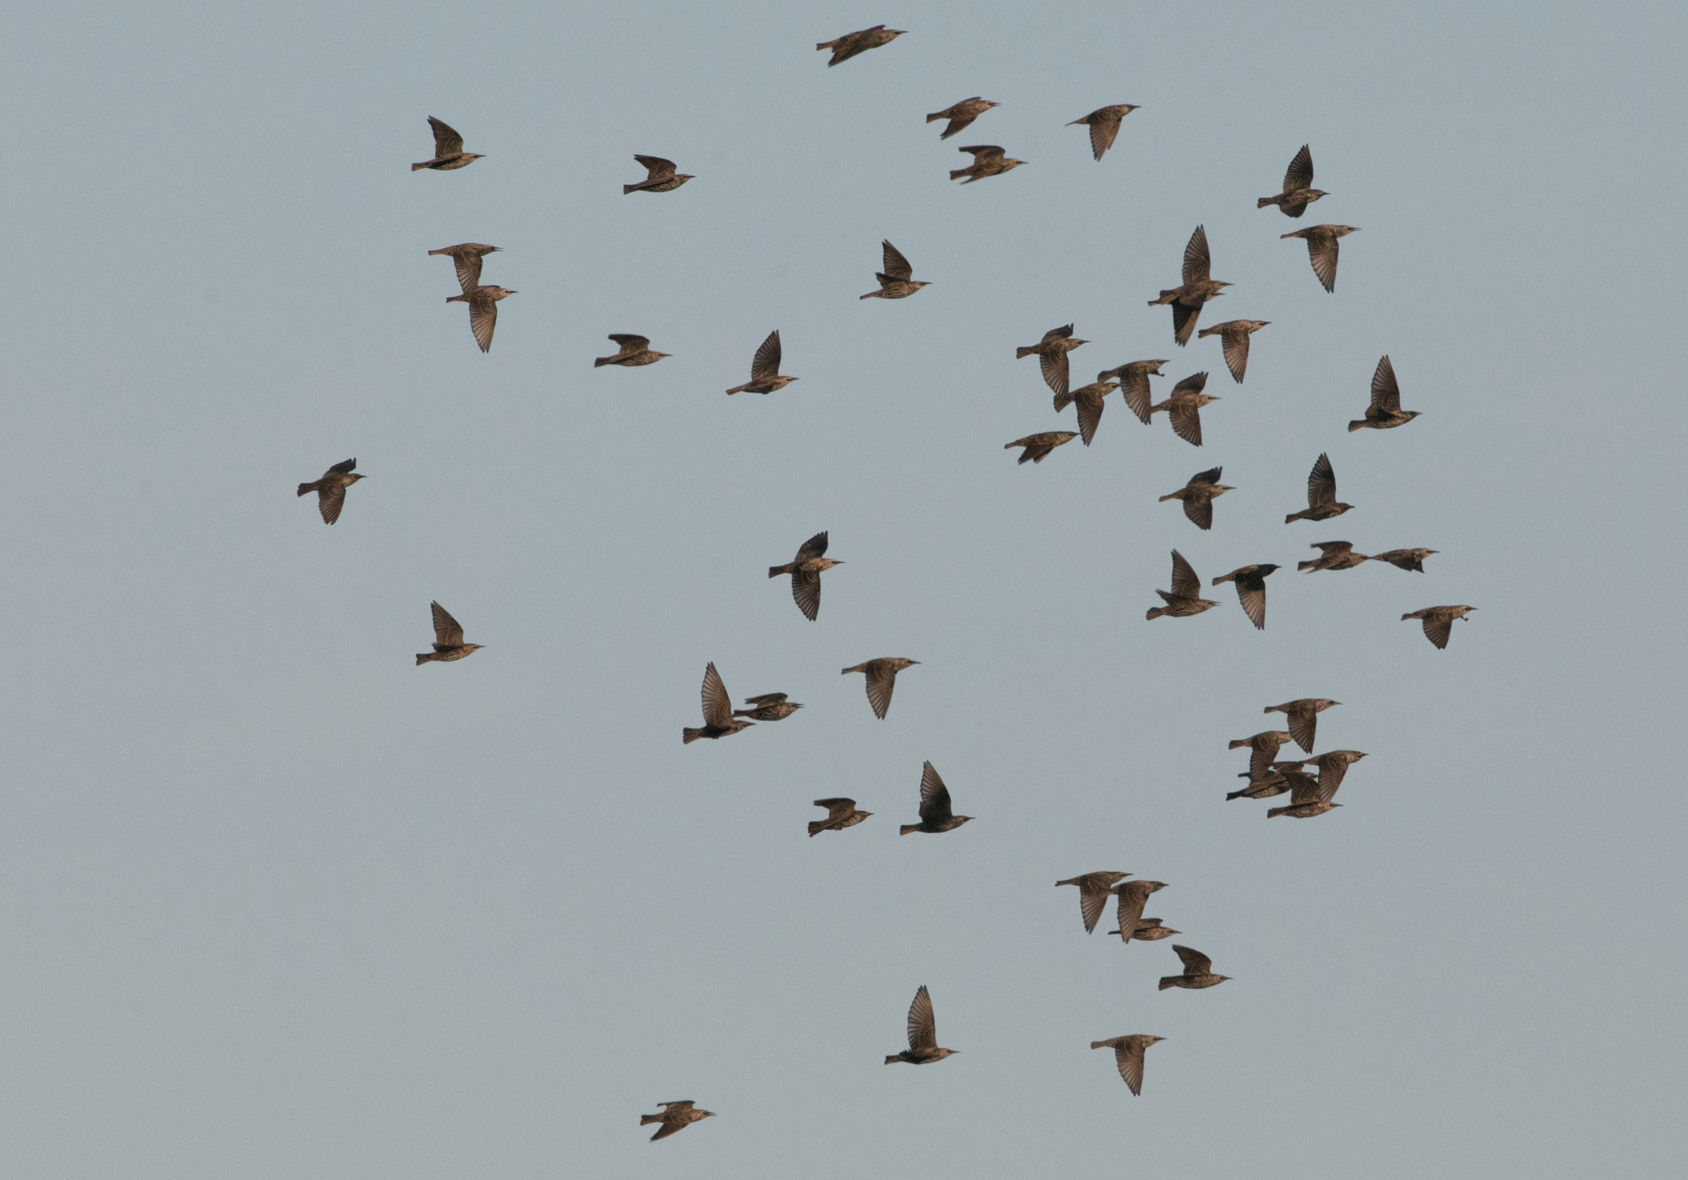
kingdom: Animalia
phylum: Chordata
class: Aves
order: Passeriformes
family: Sturnidae
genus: Sturnus
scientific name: Sturnus vulgaris
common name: Common starling
